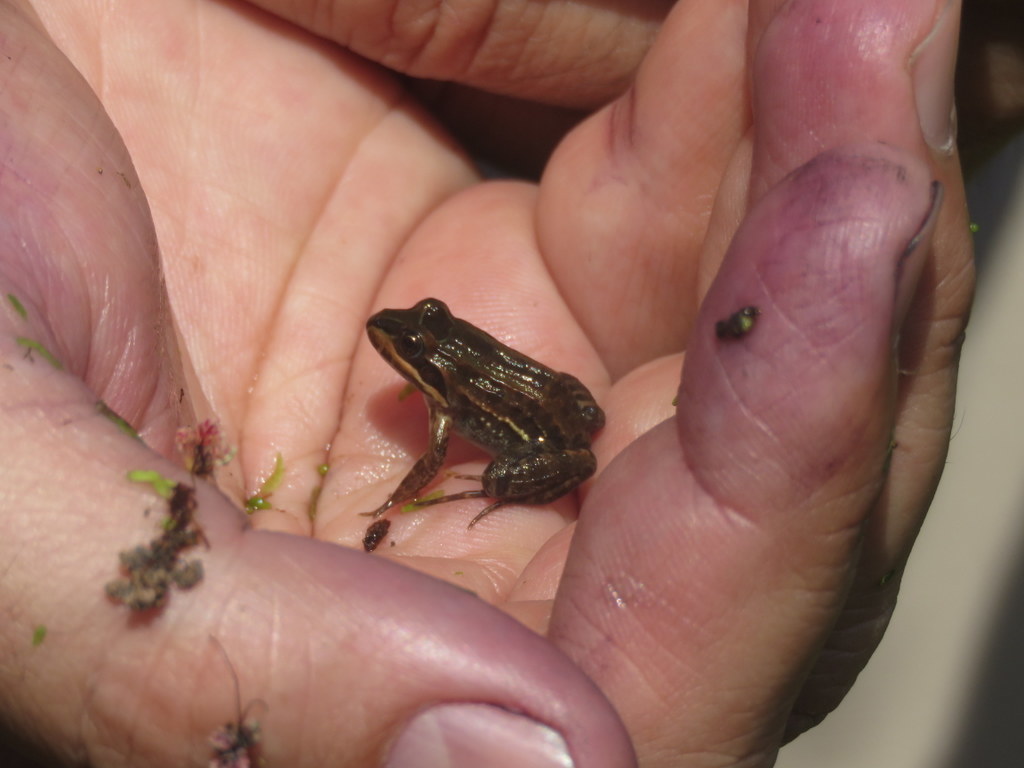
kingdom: Animalia
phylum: Chordata
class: Amphibia
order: Anura
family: Leptodactylidae
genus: Leptodactylus
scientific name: Leptodactylus luctator
